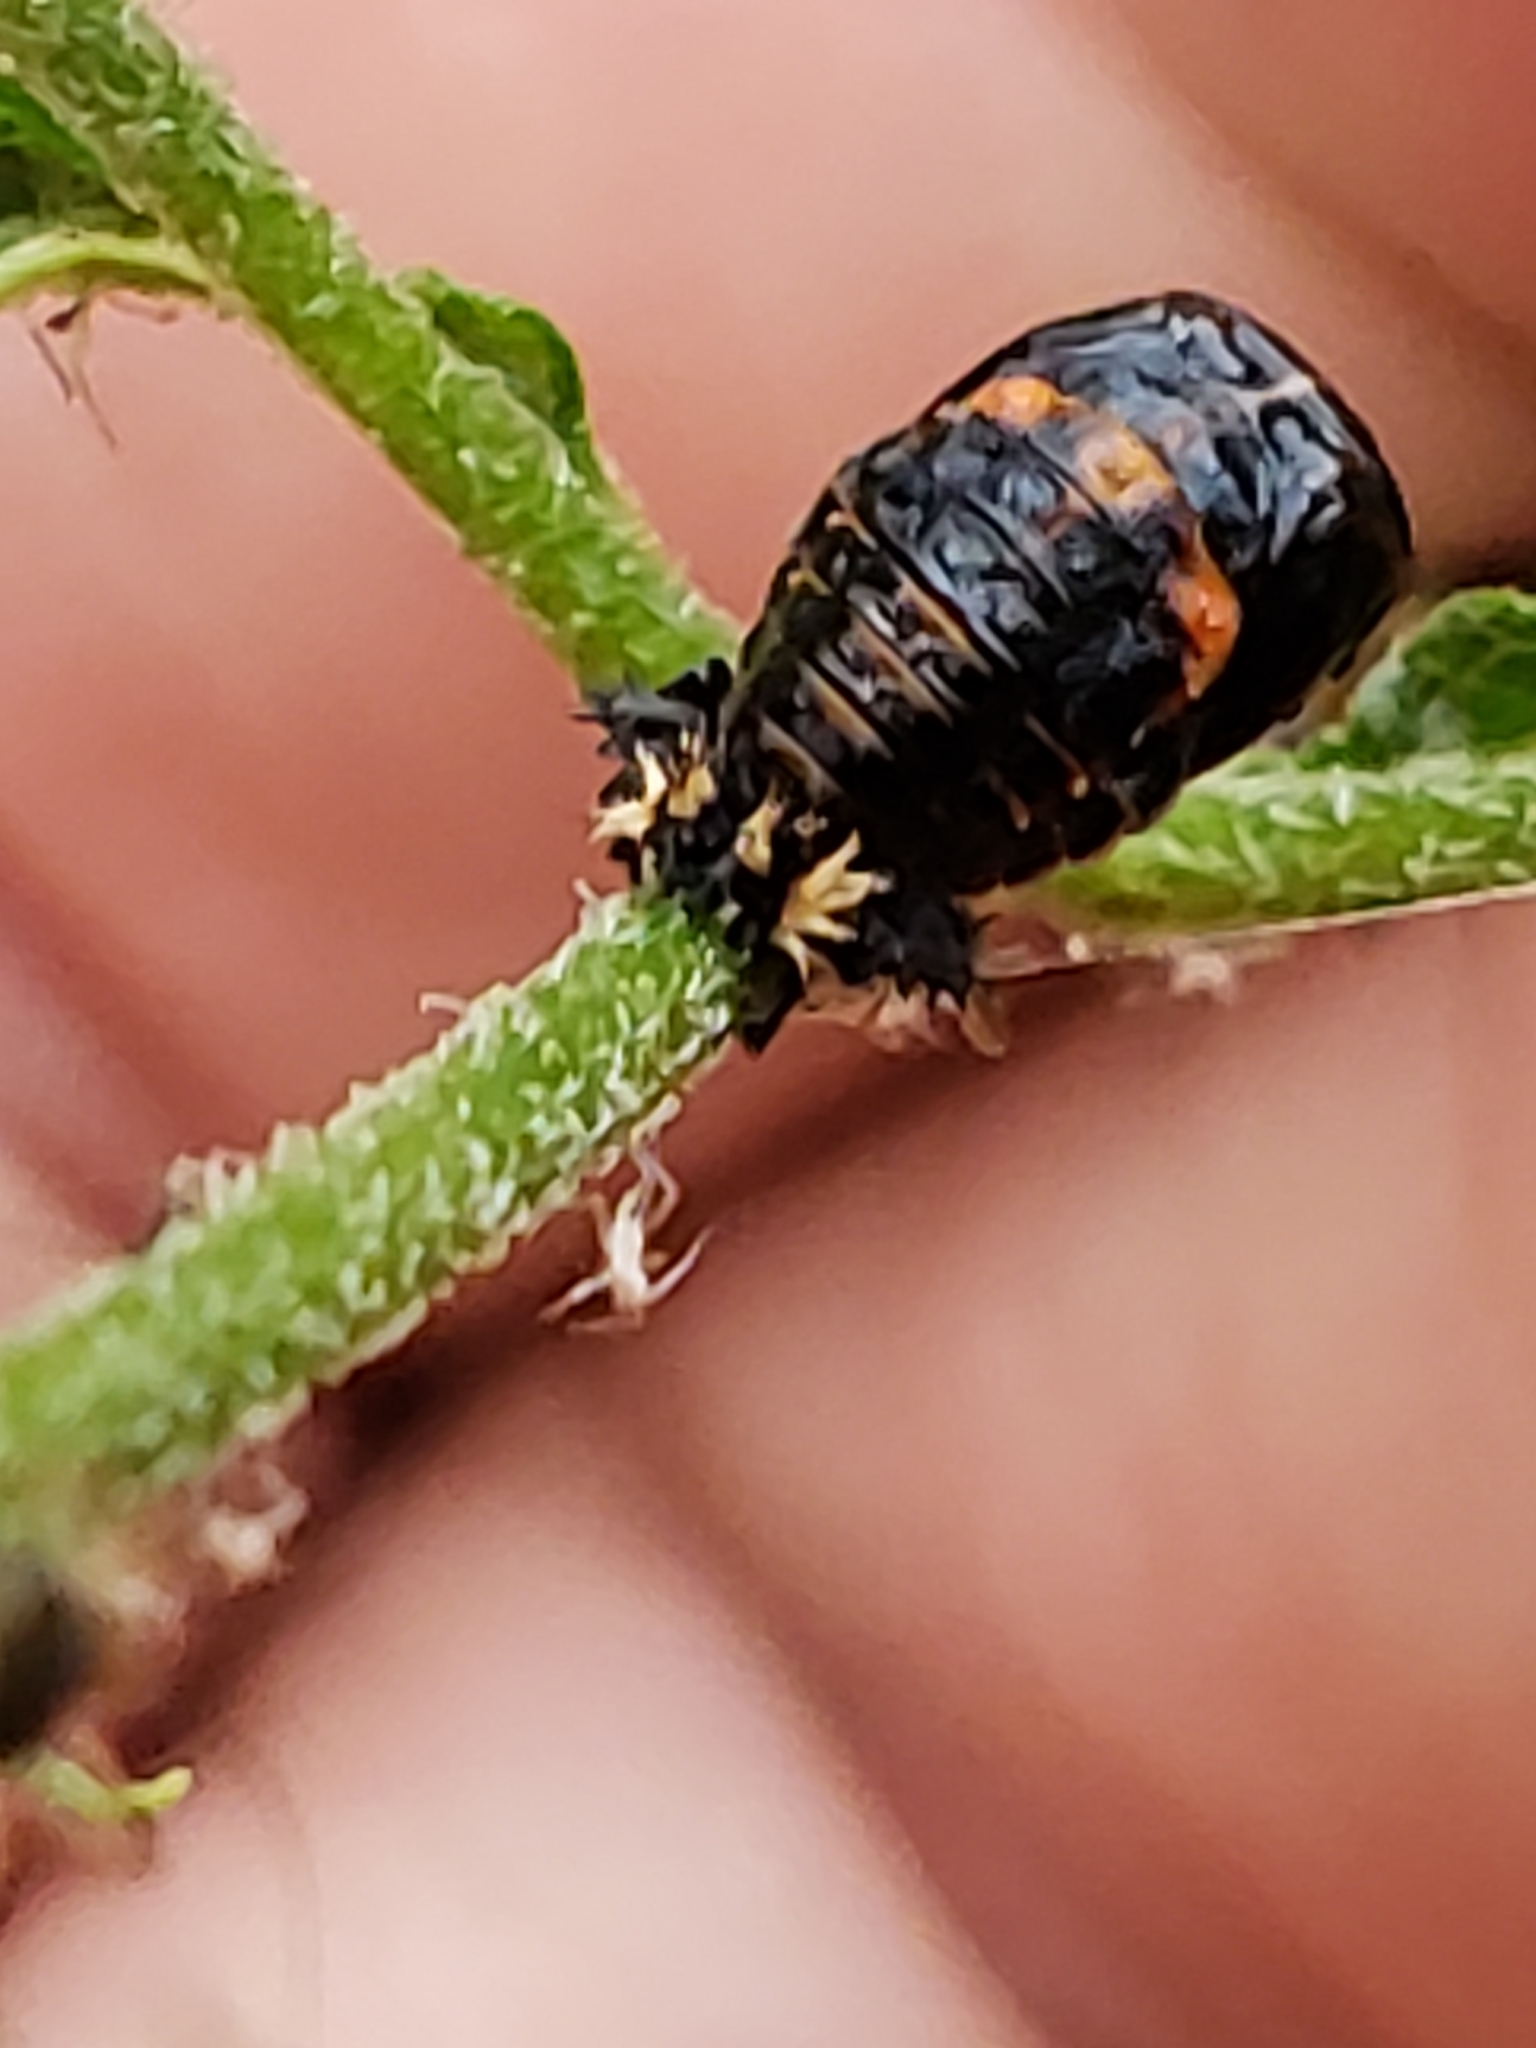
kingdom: Animalia
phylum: Arthropoda
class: Insecta
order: Coleoptera
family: Coccinellidae
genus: Harmonia
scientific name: Harmonia axyridis
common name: Harlequin ladybird
